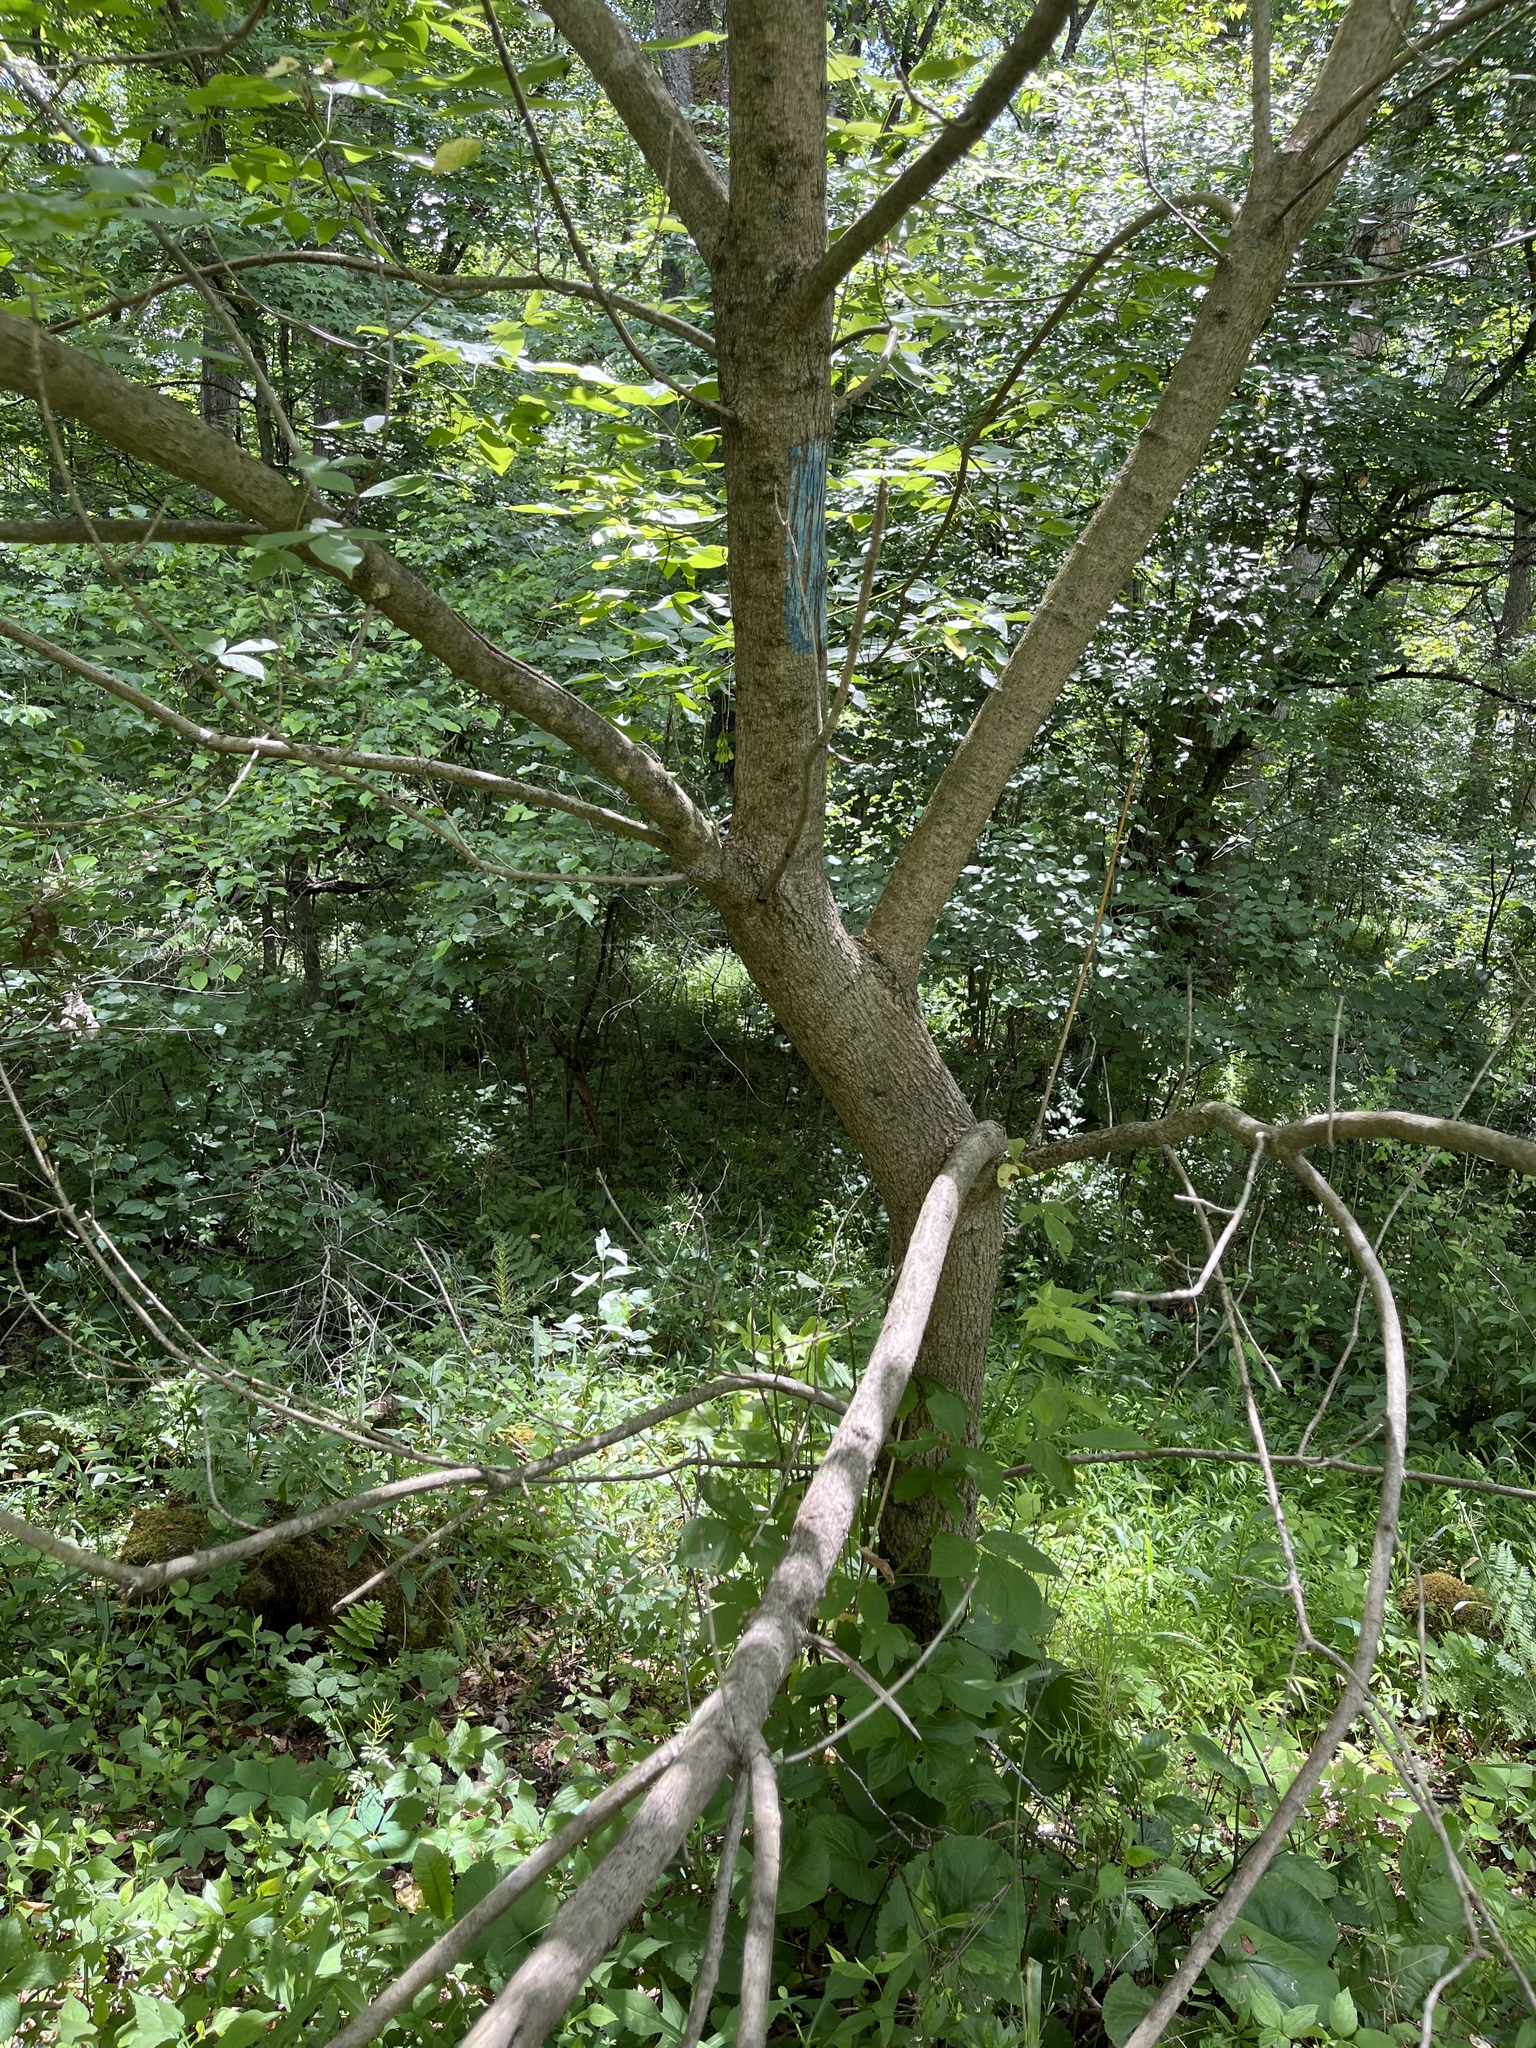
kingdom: Plantae
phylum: Tracheophyta
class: Magnoliopsida
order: Sapindales
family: Sapindaceae
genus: Acer
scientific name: Acer negundo
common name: Ashleaf maple
